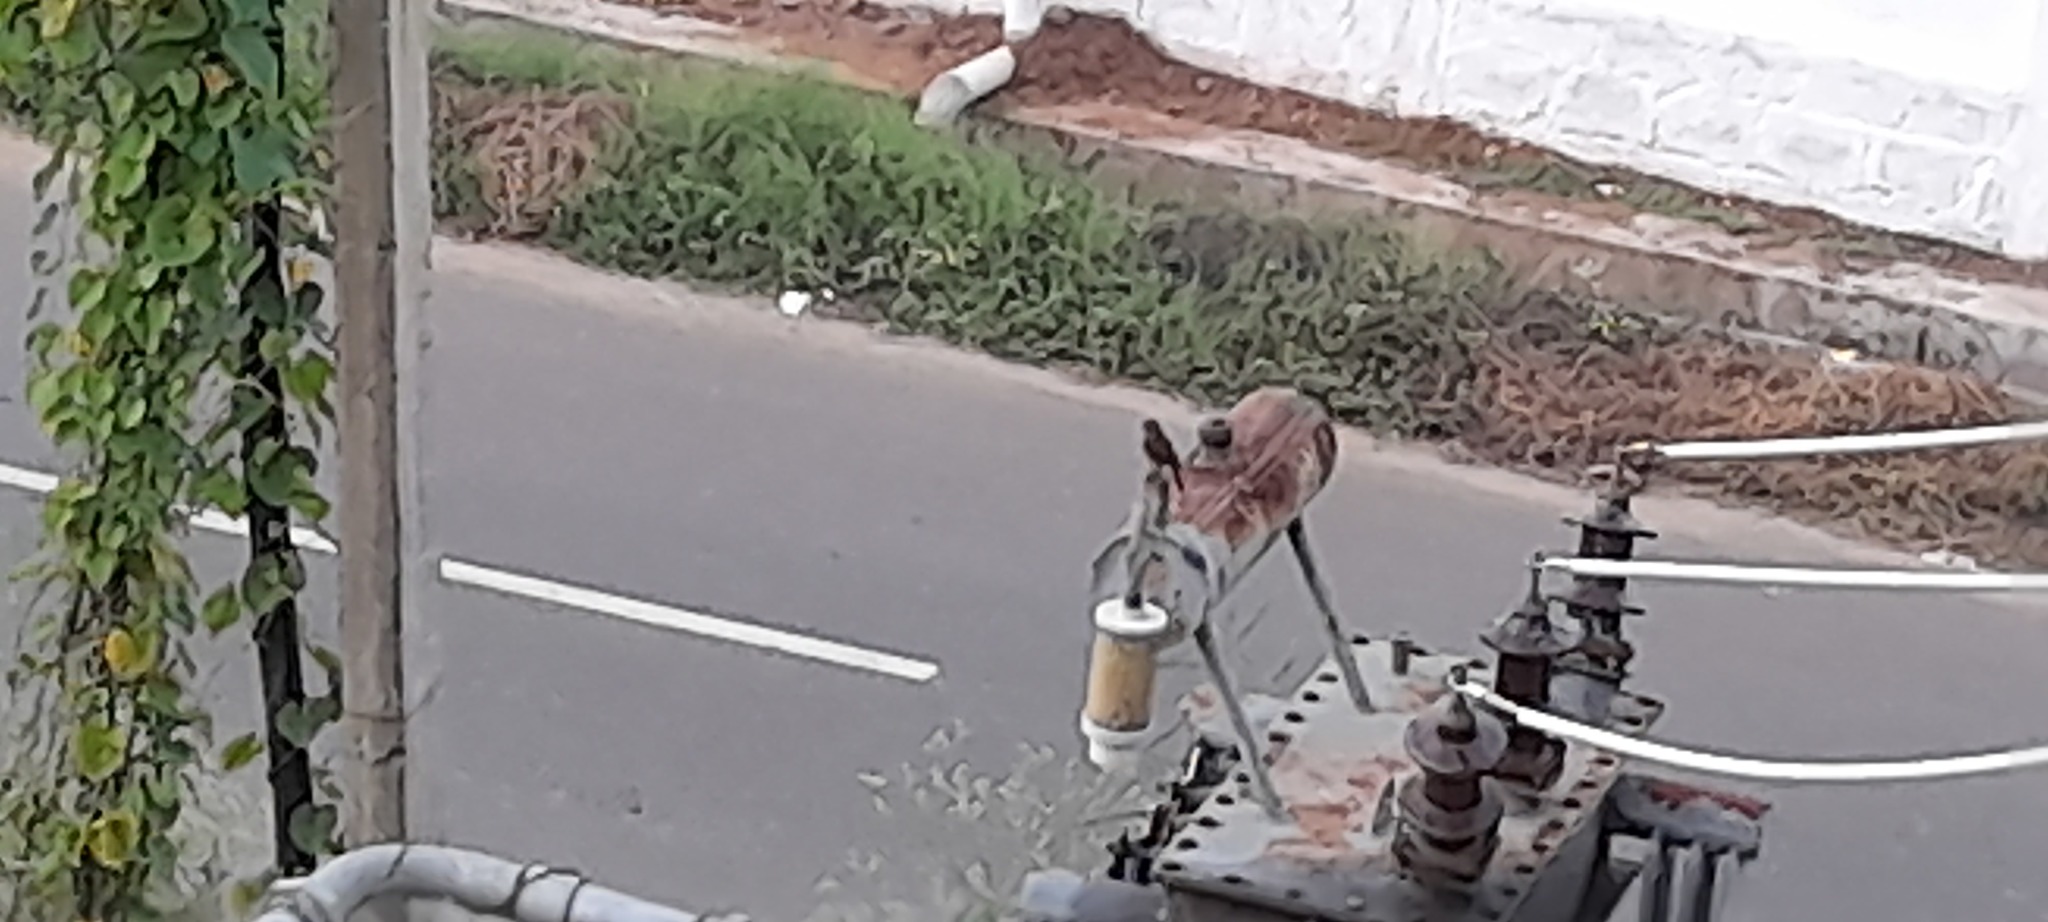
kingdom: Animalia
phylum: Chordata
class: Aves
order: Passeriformes
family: Muscicapidae
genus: Saxicola
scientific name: Saxicola caprata
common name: Pied bush chat
